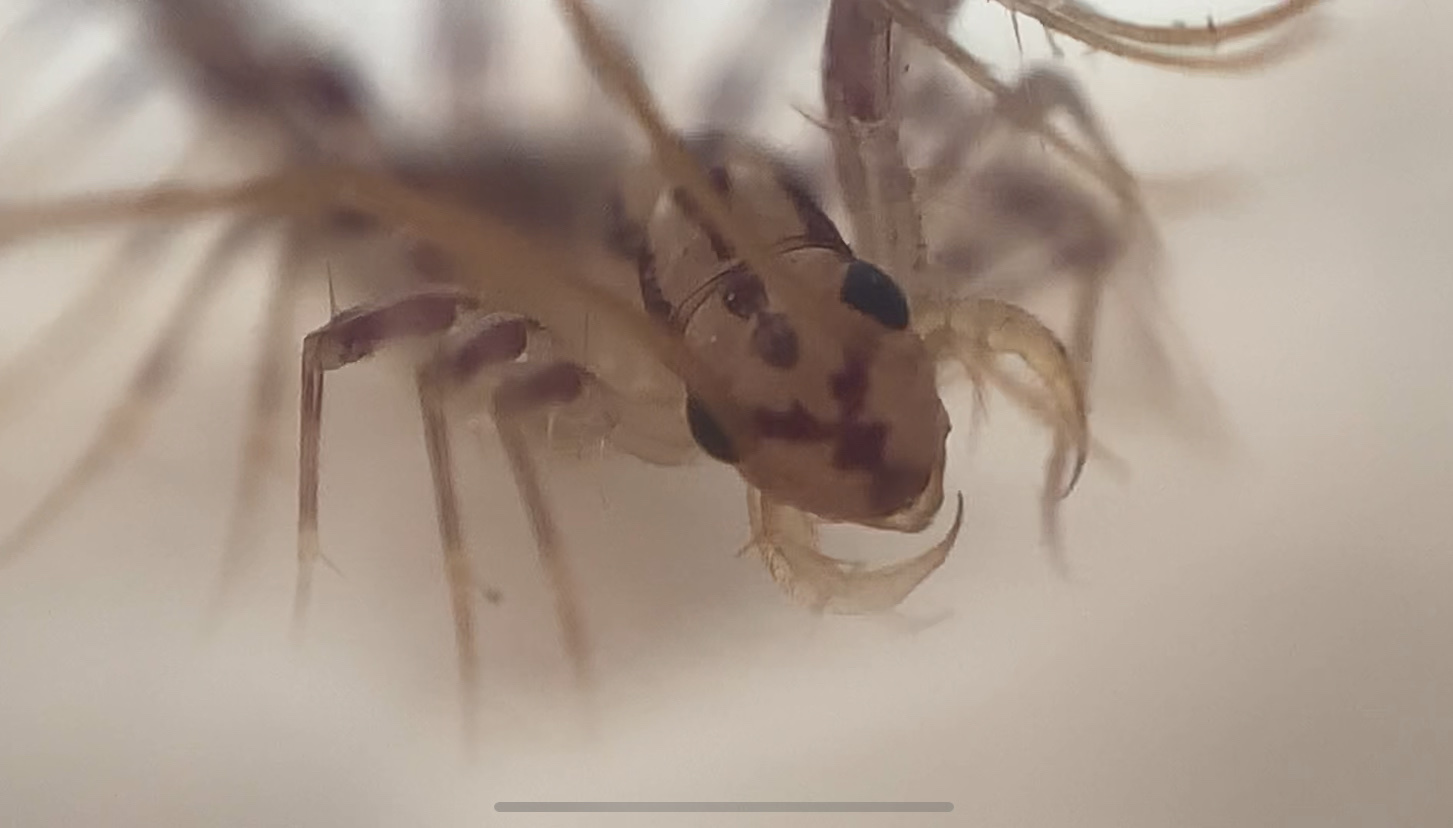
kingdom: Animalia
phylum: Arthropoda
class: Chilopoda
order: Scutigeromorpha
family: Scutigeridae
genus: Scutigera
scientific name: Scutigera coleoptrata
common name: House centipede
